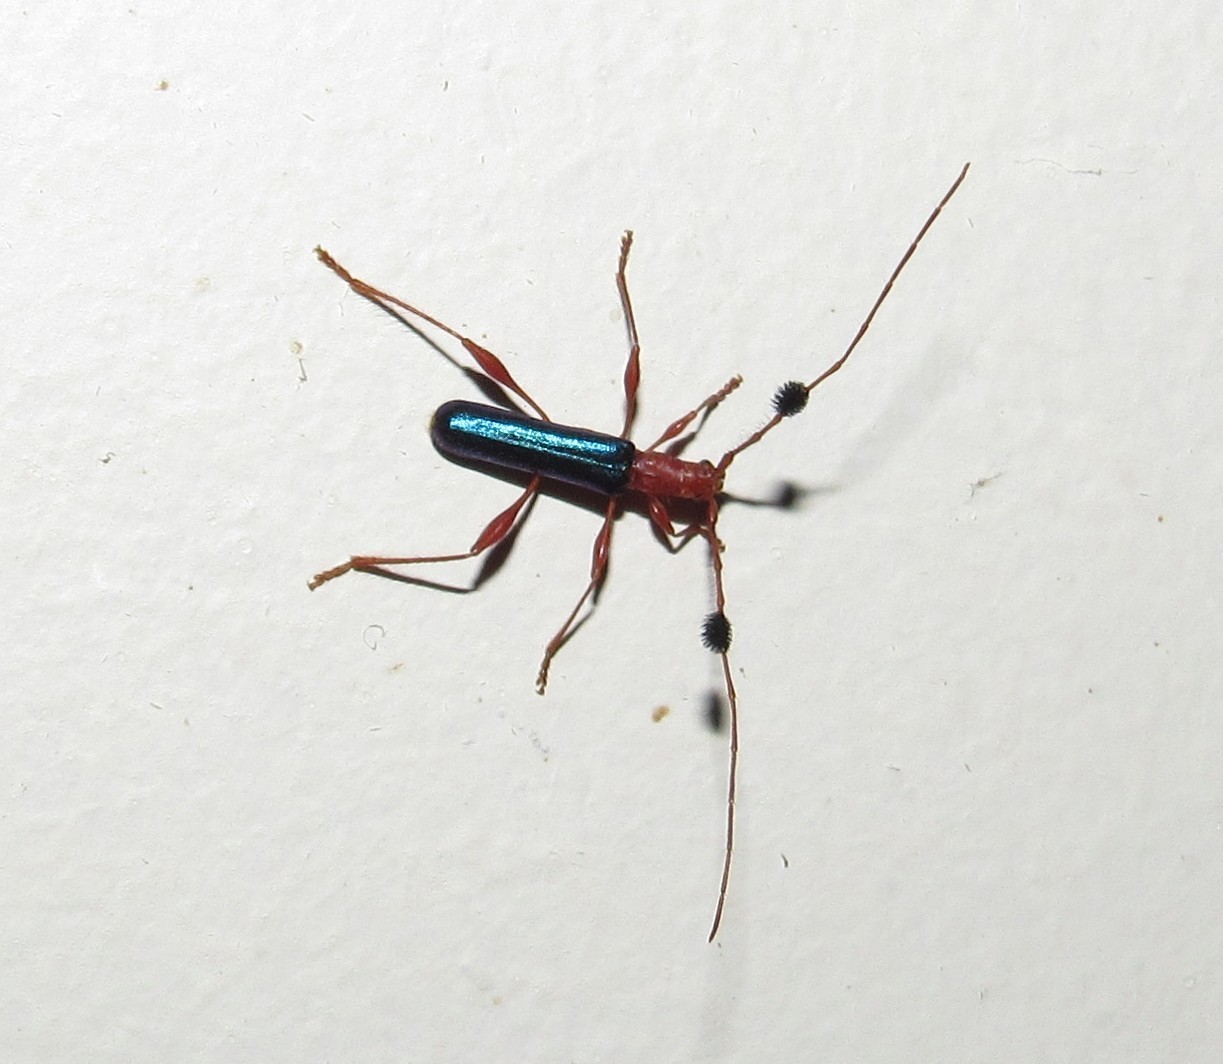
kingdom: Animalia
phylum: Arthropoda
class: Insecta
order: Coleoptera
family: Cerambycidae
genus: Unxia
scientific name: Unxia gracilior
